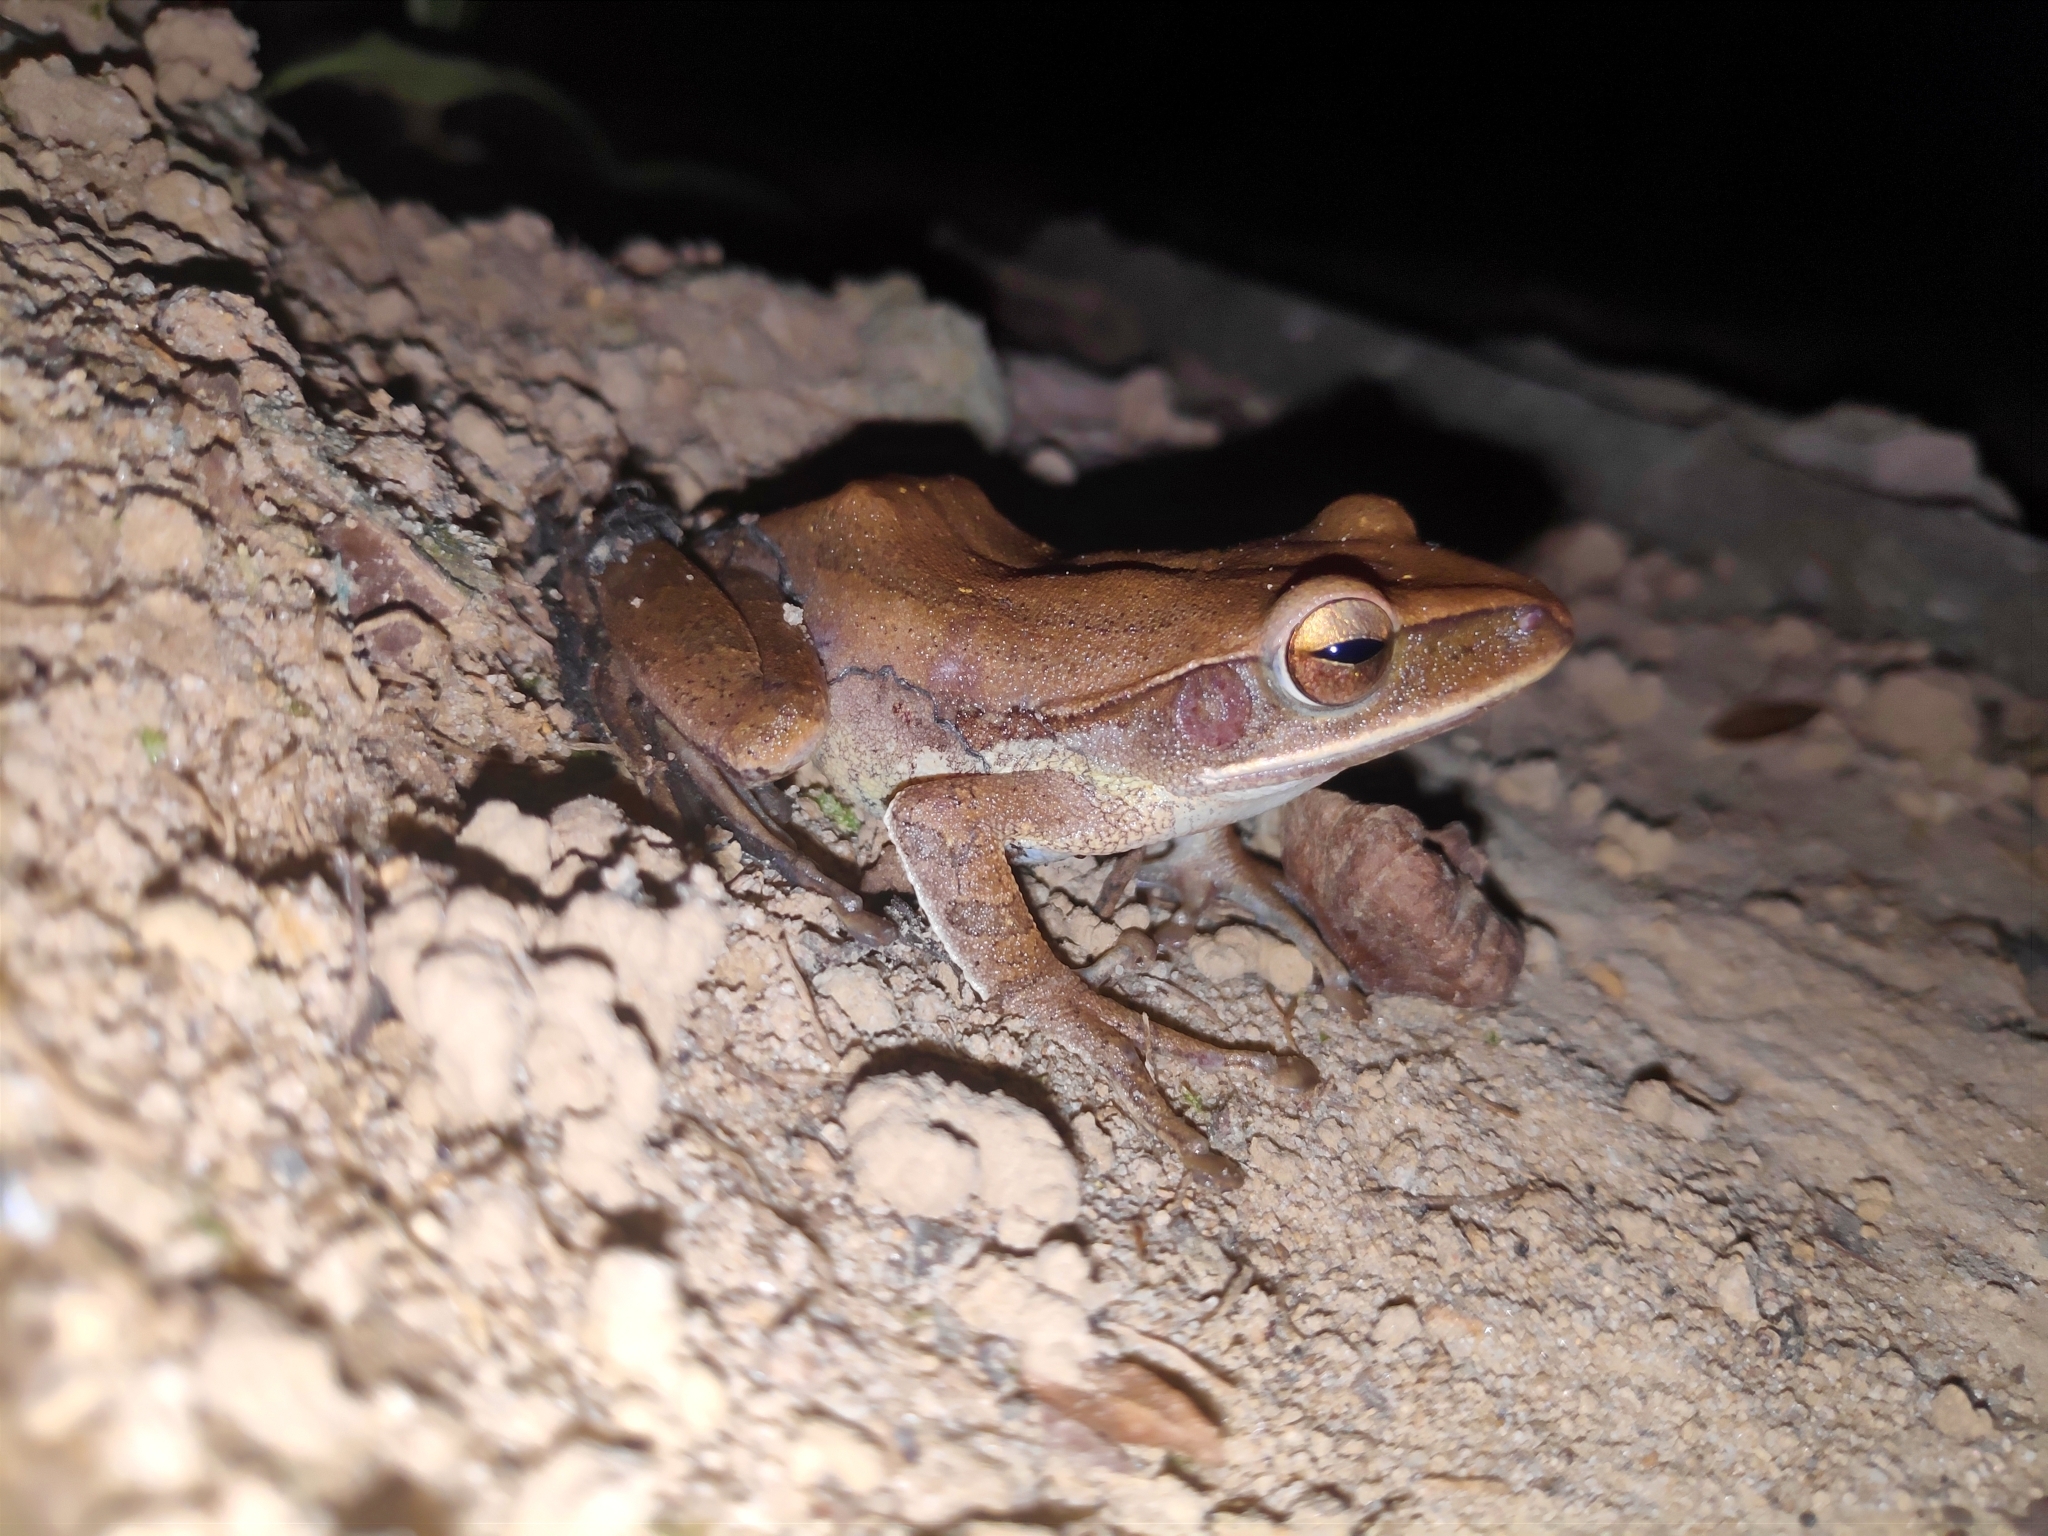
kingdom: Animalia
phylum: Chordata
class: Amphibia
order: Anura
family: Rhacophoridae
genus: Polypedates
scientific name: Polypedates
